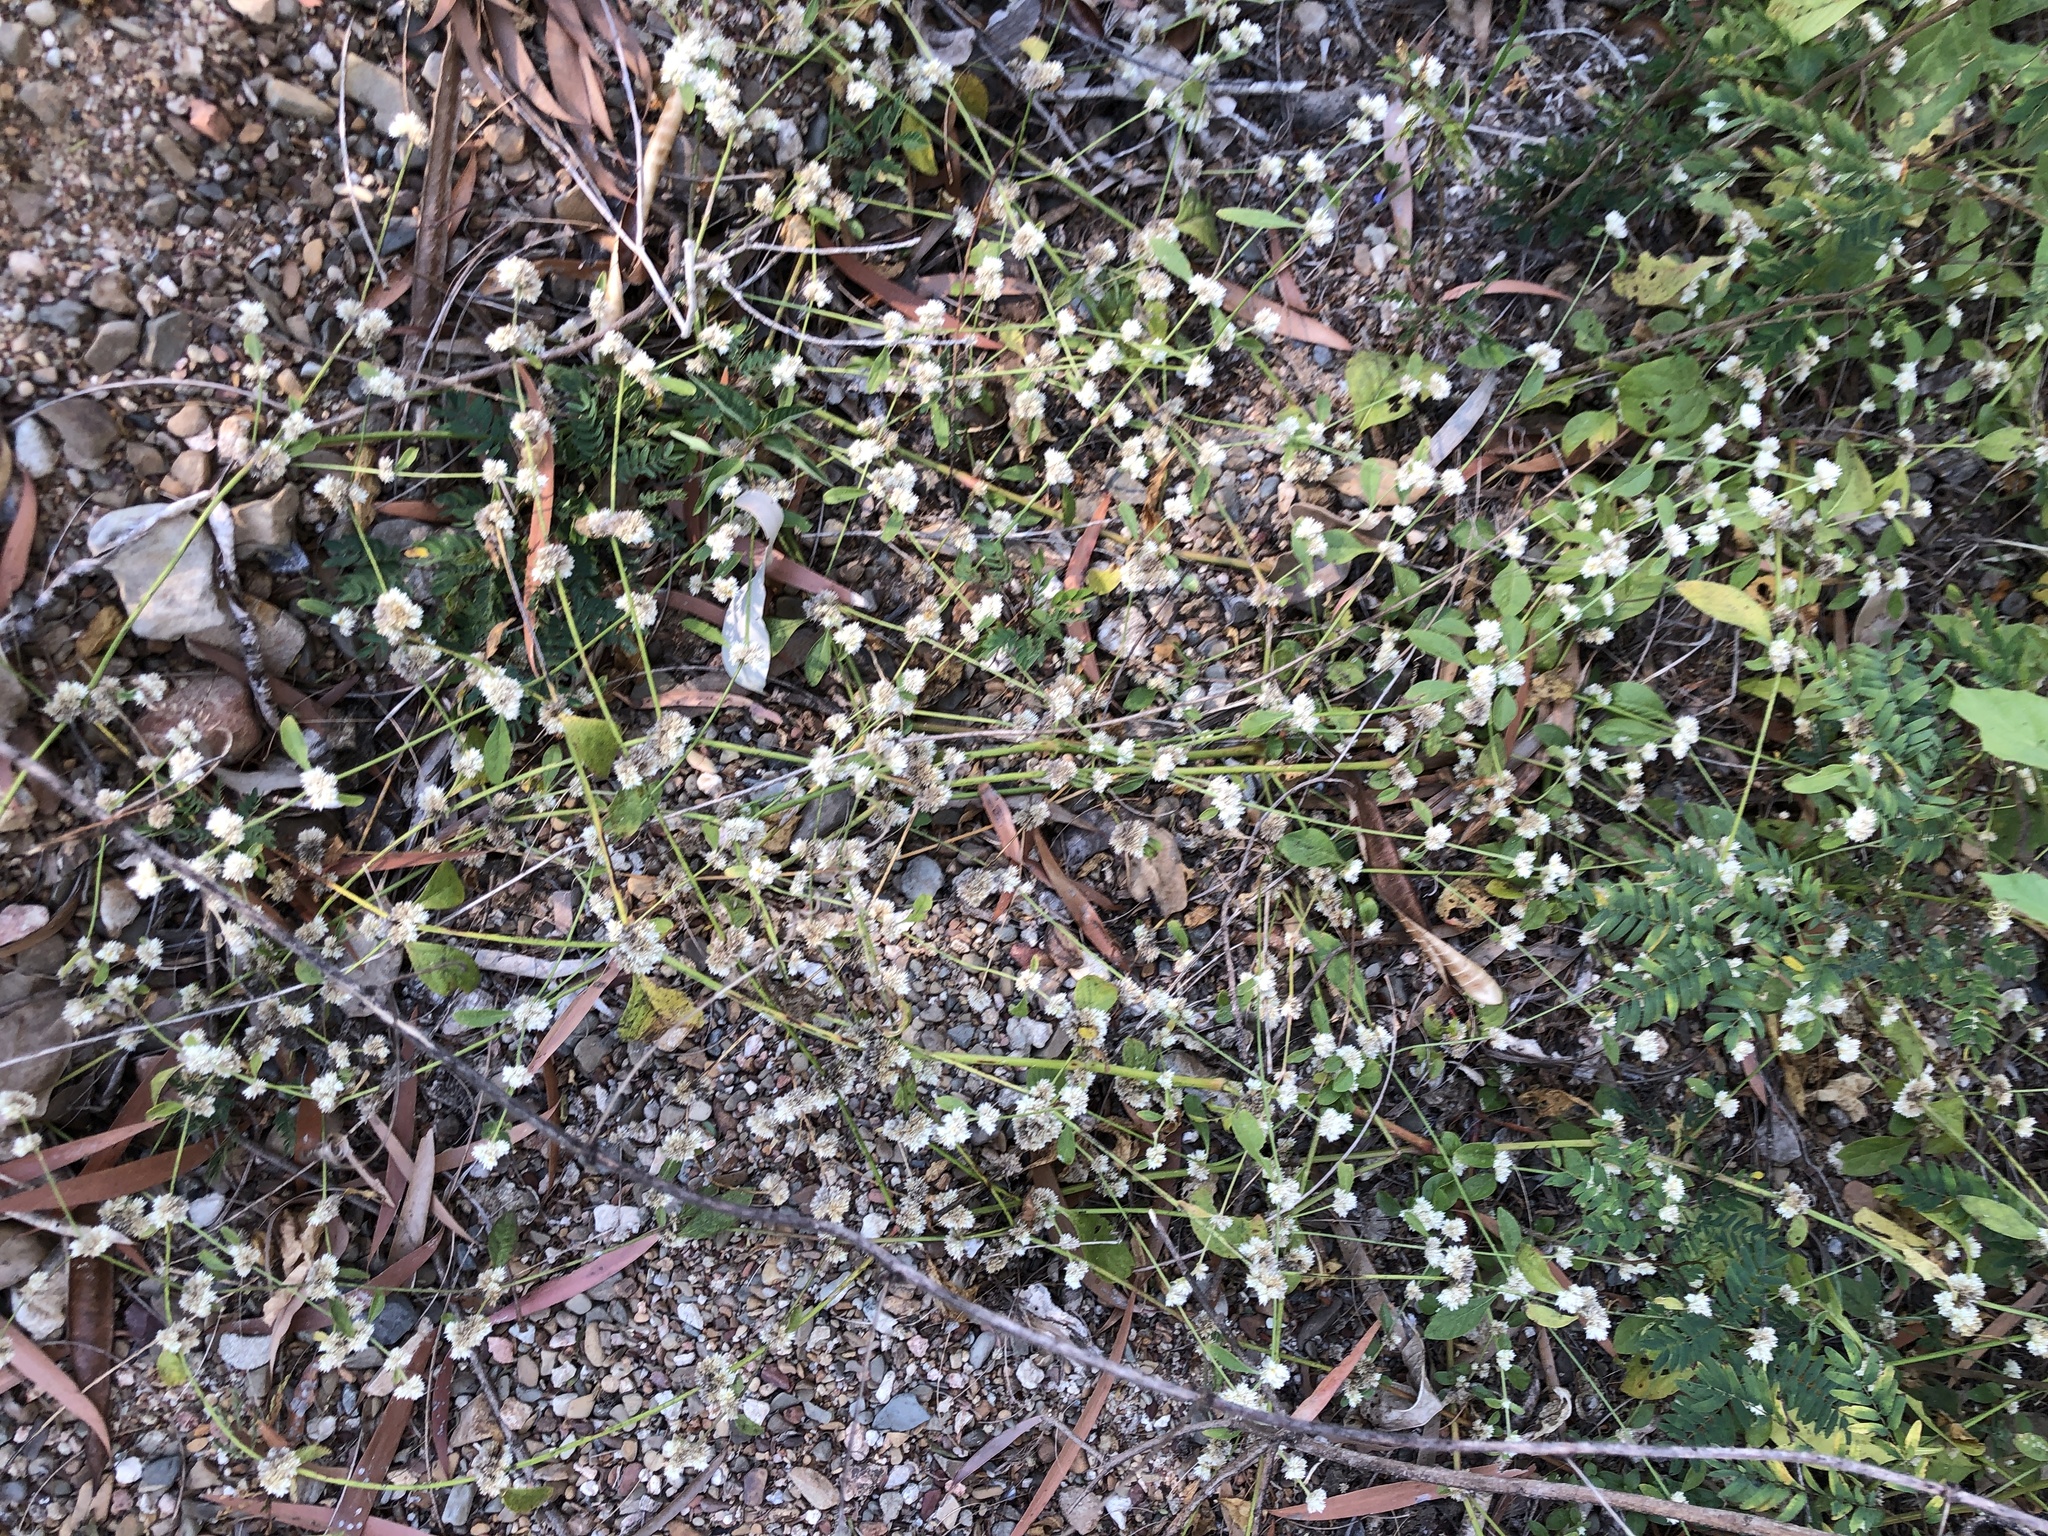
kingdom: Plantae
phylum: Tracheophyta
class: Magnoliopsida
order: Caryophyllales
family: Amaranthaceae
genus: Alternanthera
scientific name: Alternanthera ficoidea
